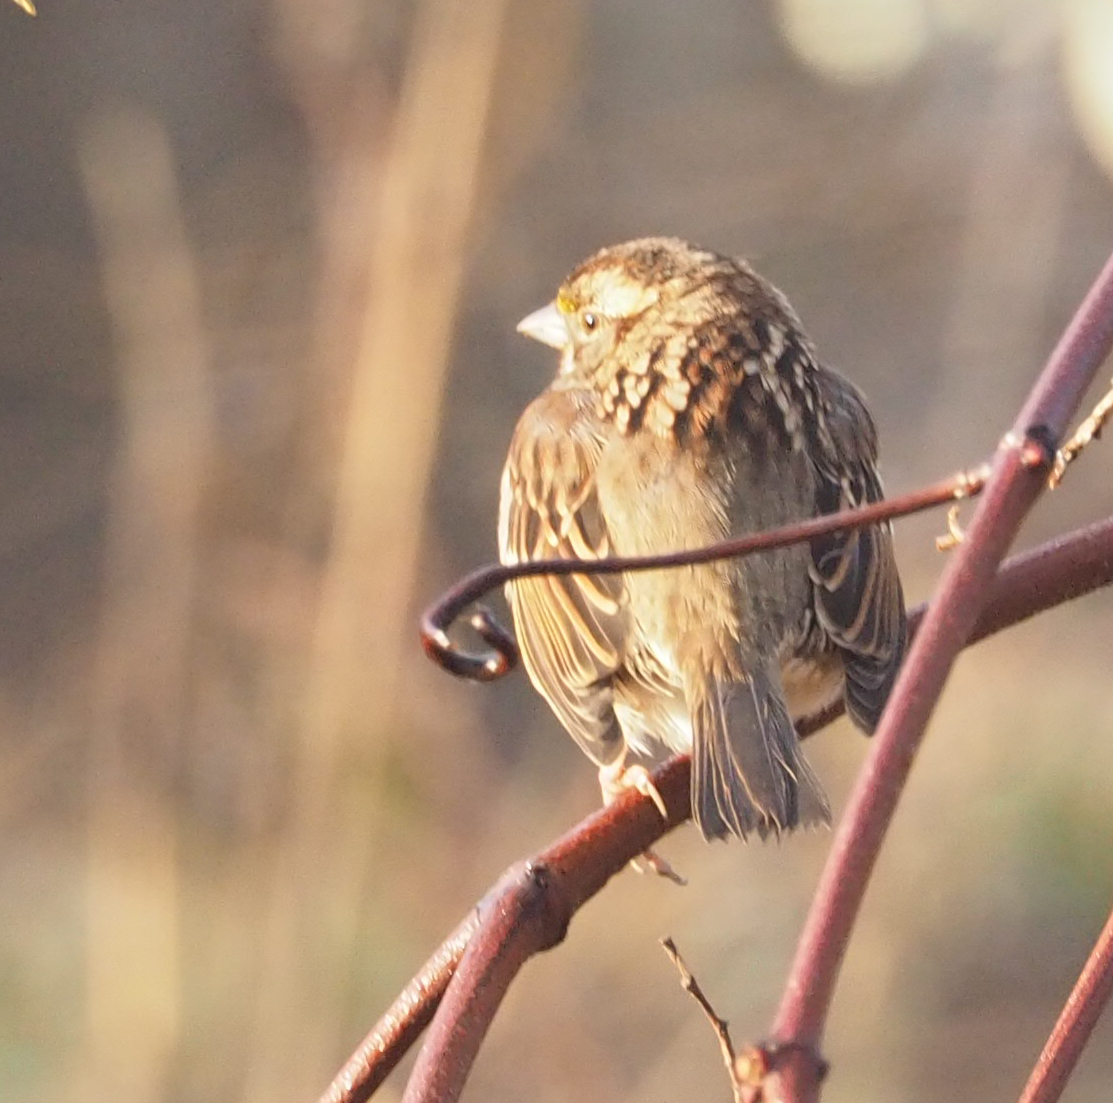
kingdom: Animalia
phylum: Chordata
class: Aves
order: Passeriformes
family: Passerellidae
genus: Zonotrichia
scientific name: Zonotrichia albicollis
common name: White-throated sparrow
